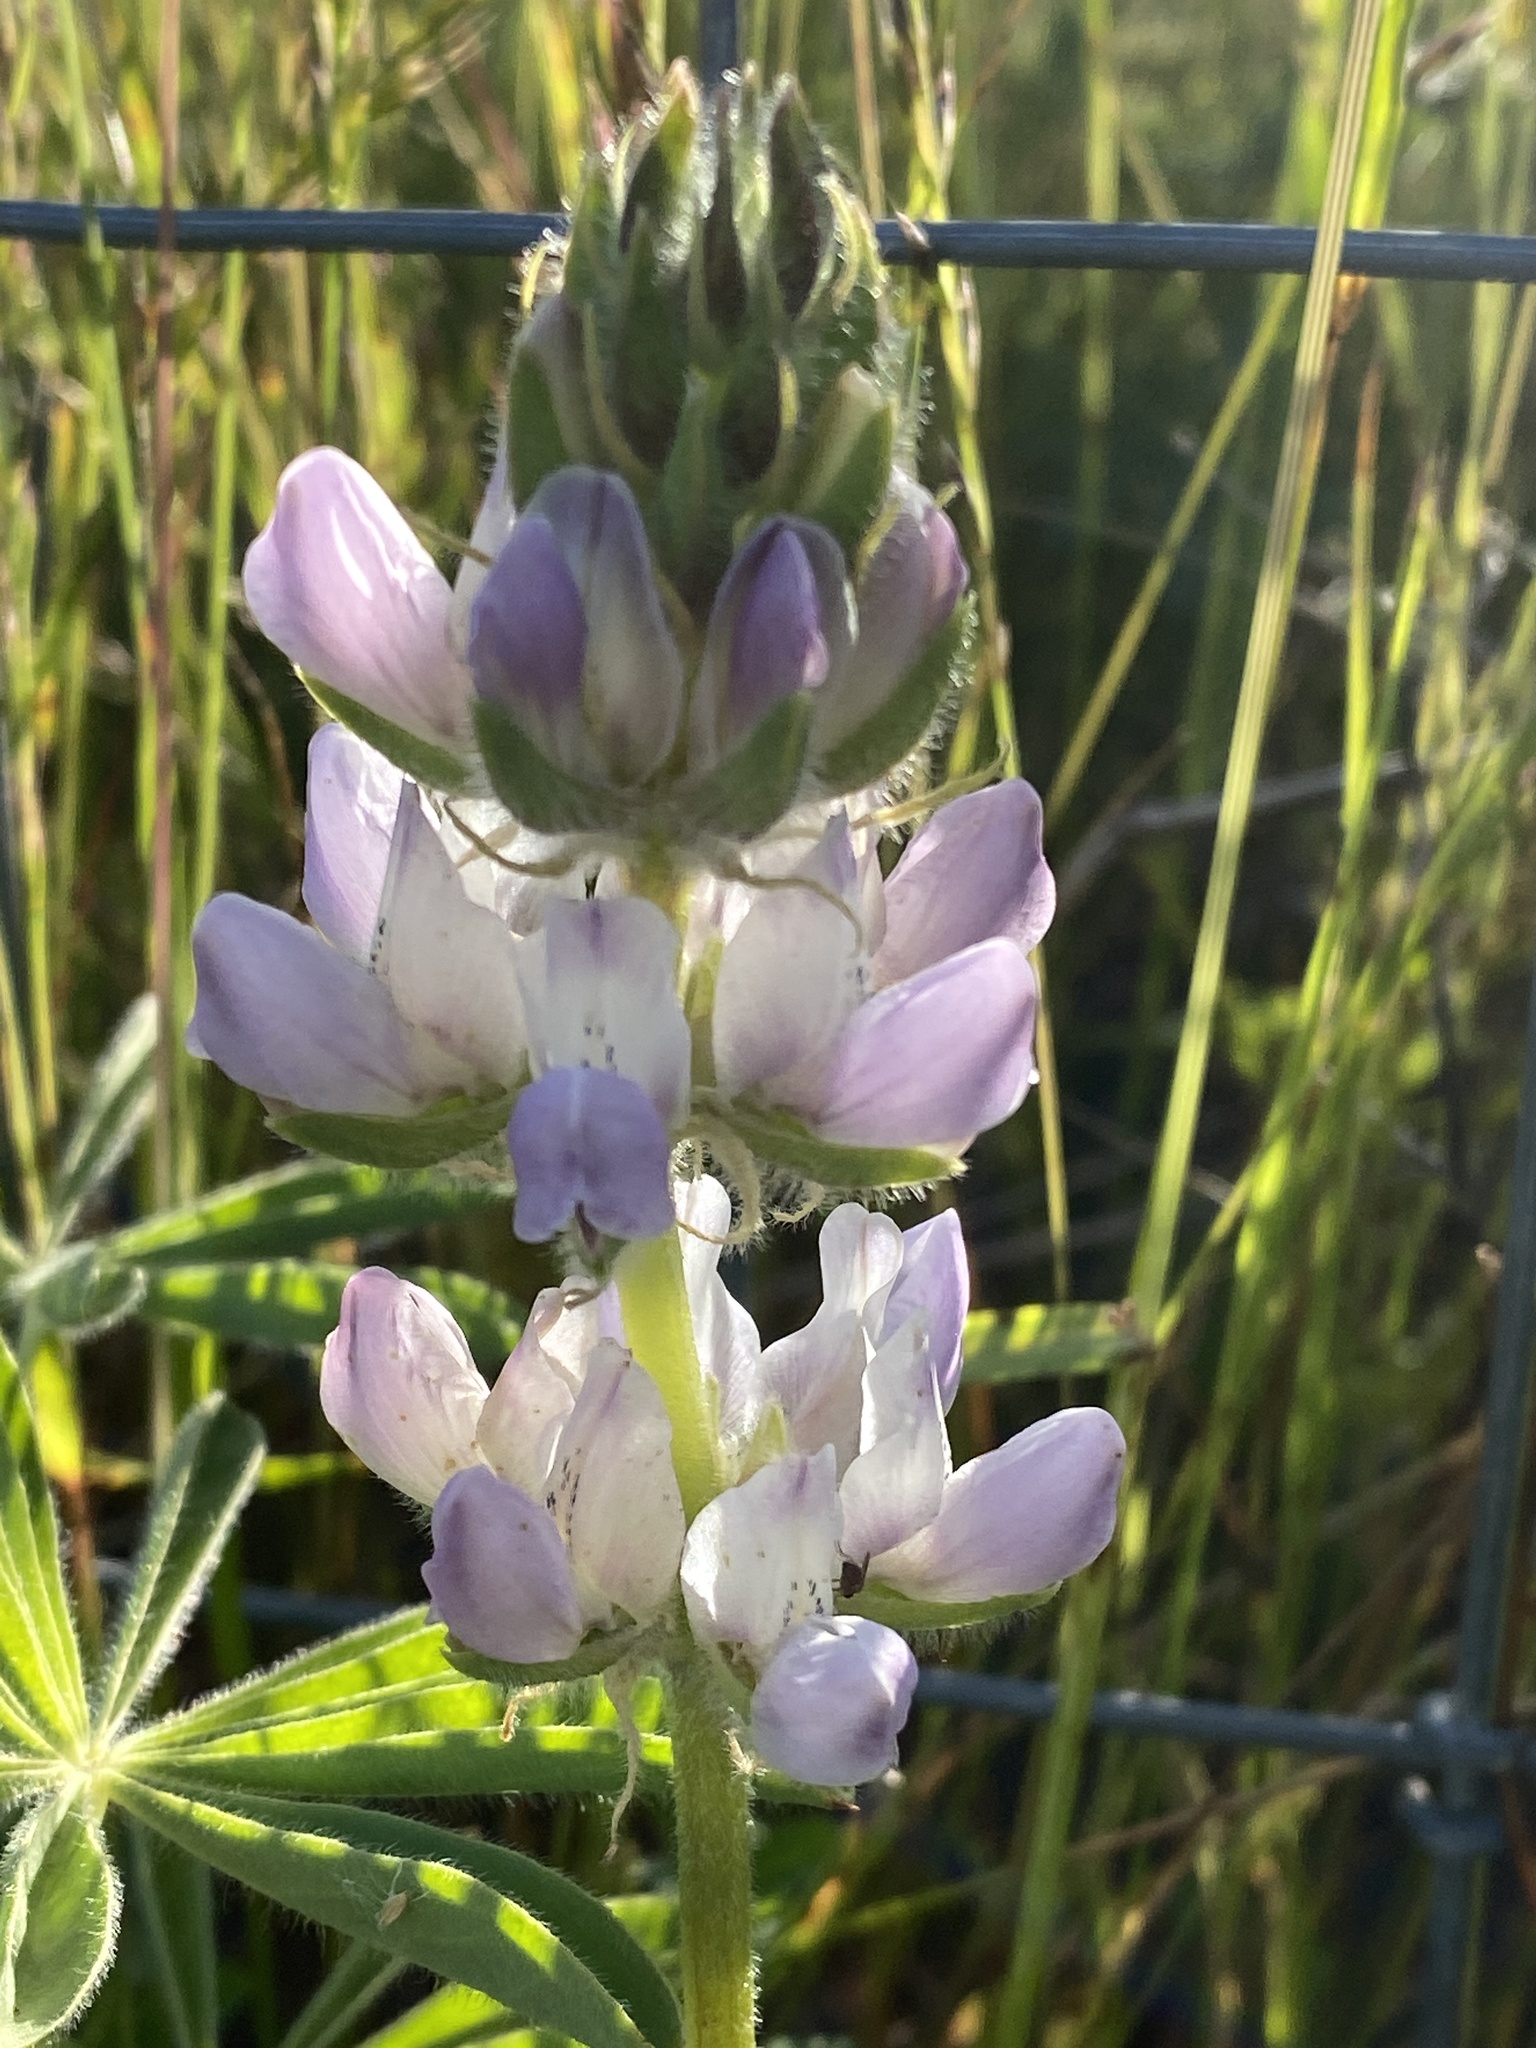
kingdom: Plantae
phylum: Tracheophyta
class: Magnoliopsida
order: Fabales
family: Fabaceae
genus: Lupinus
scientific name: Lupinus microcarpus
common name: Chick lupine
